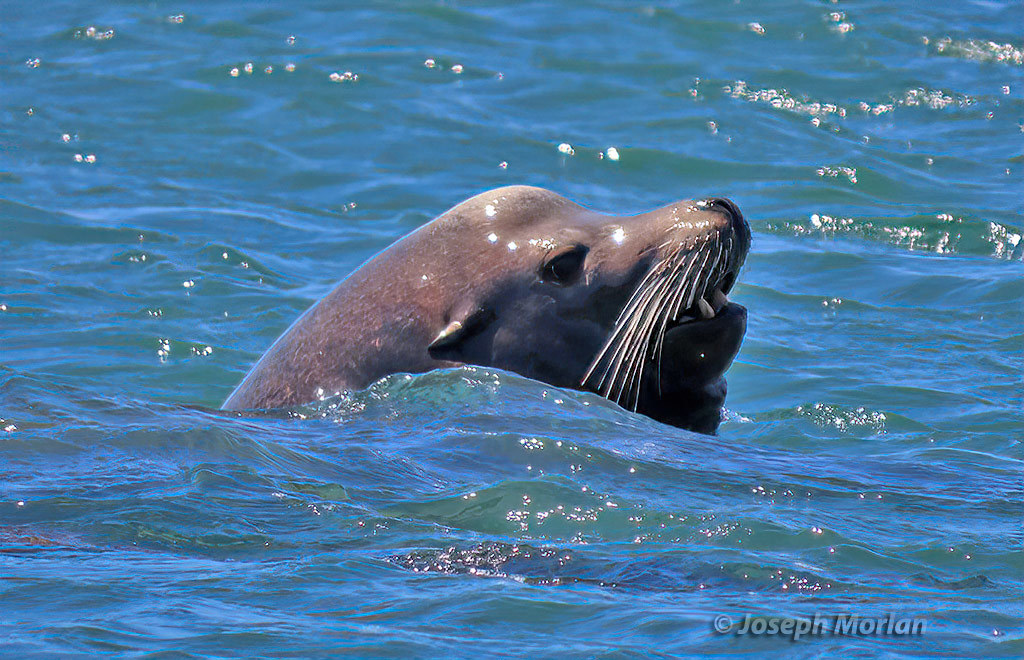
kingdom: Animalia
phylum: Chordata
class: Mammalia
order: Carnivora
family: Otariidae
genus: Zalophus
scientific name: Zalophus californianus
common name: California sea lion
